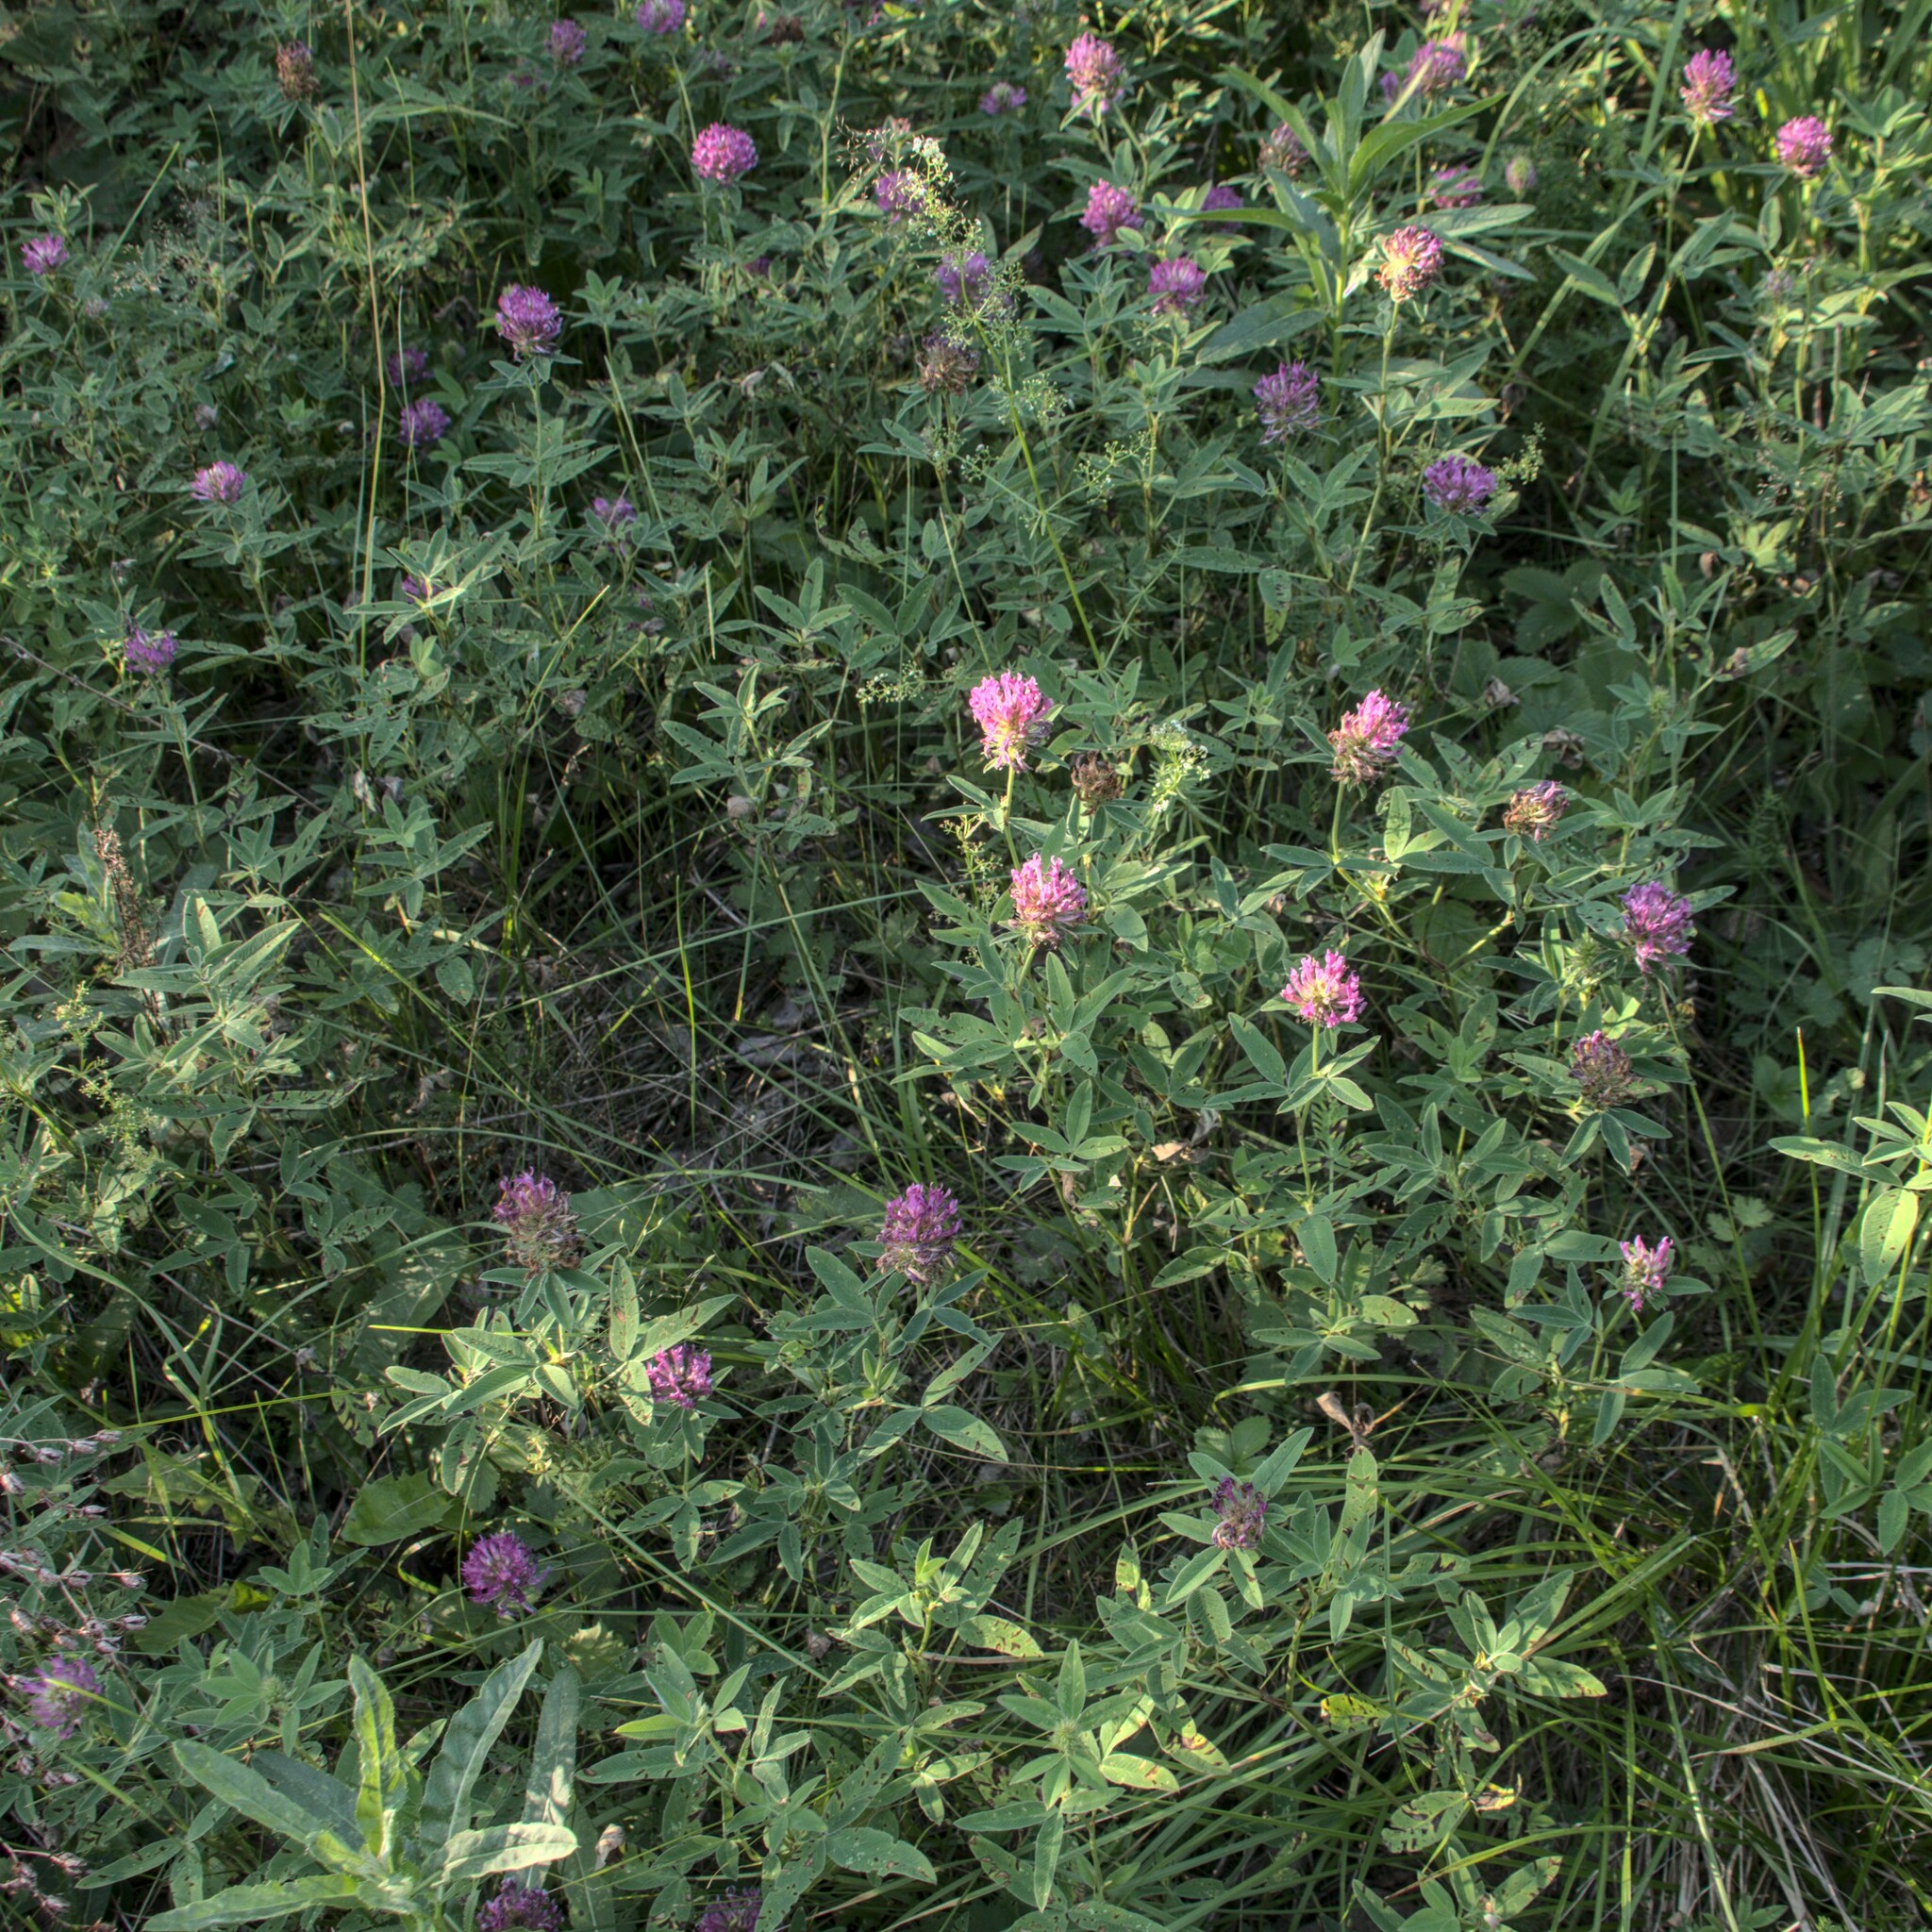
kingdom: Plantae
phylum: Tracheophyta
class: Magnoliopsida
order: Fabales
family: Fabaceae
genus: Trifolium
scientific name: Trifolium medium
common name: Zigzag clover
